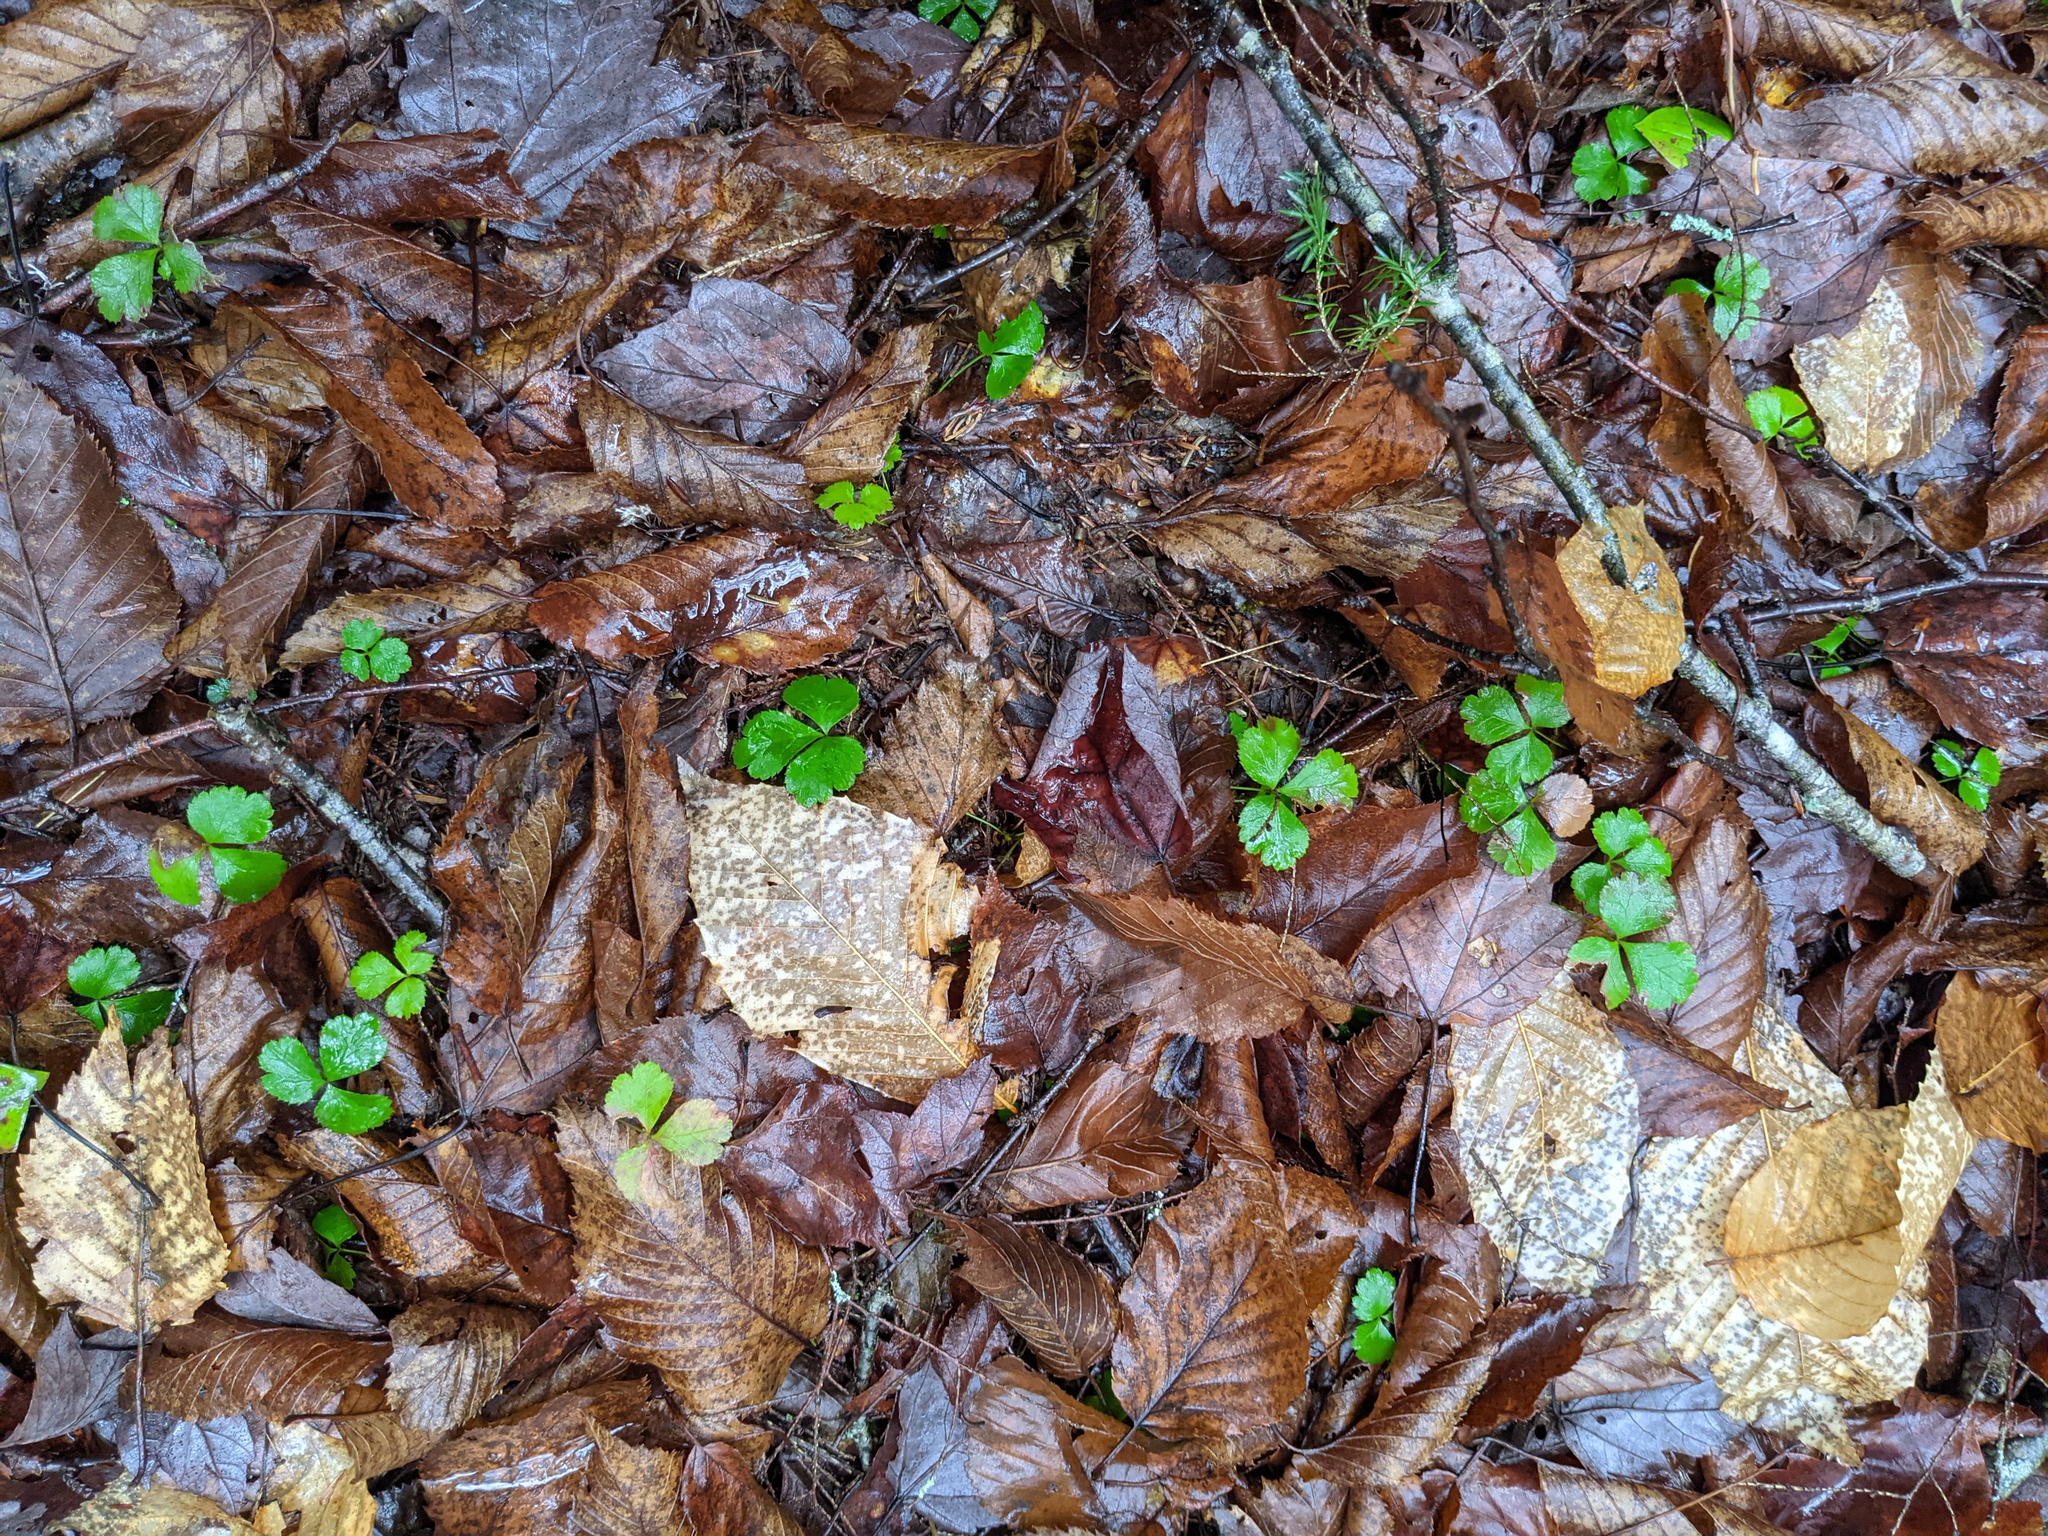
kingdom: Plantae
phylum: Tracheophyta
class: Magnoliopsida
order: Ranunculales
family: Ranunculaceae
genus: Coptis
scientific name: Coptis trifolia
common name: Canker-root
